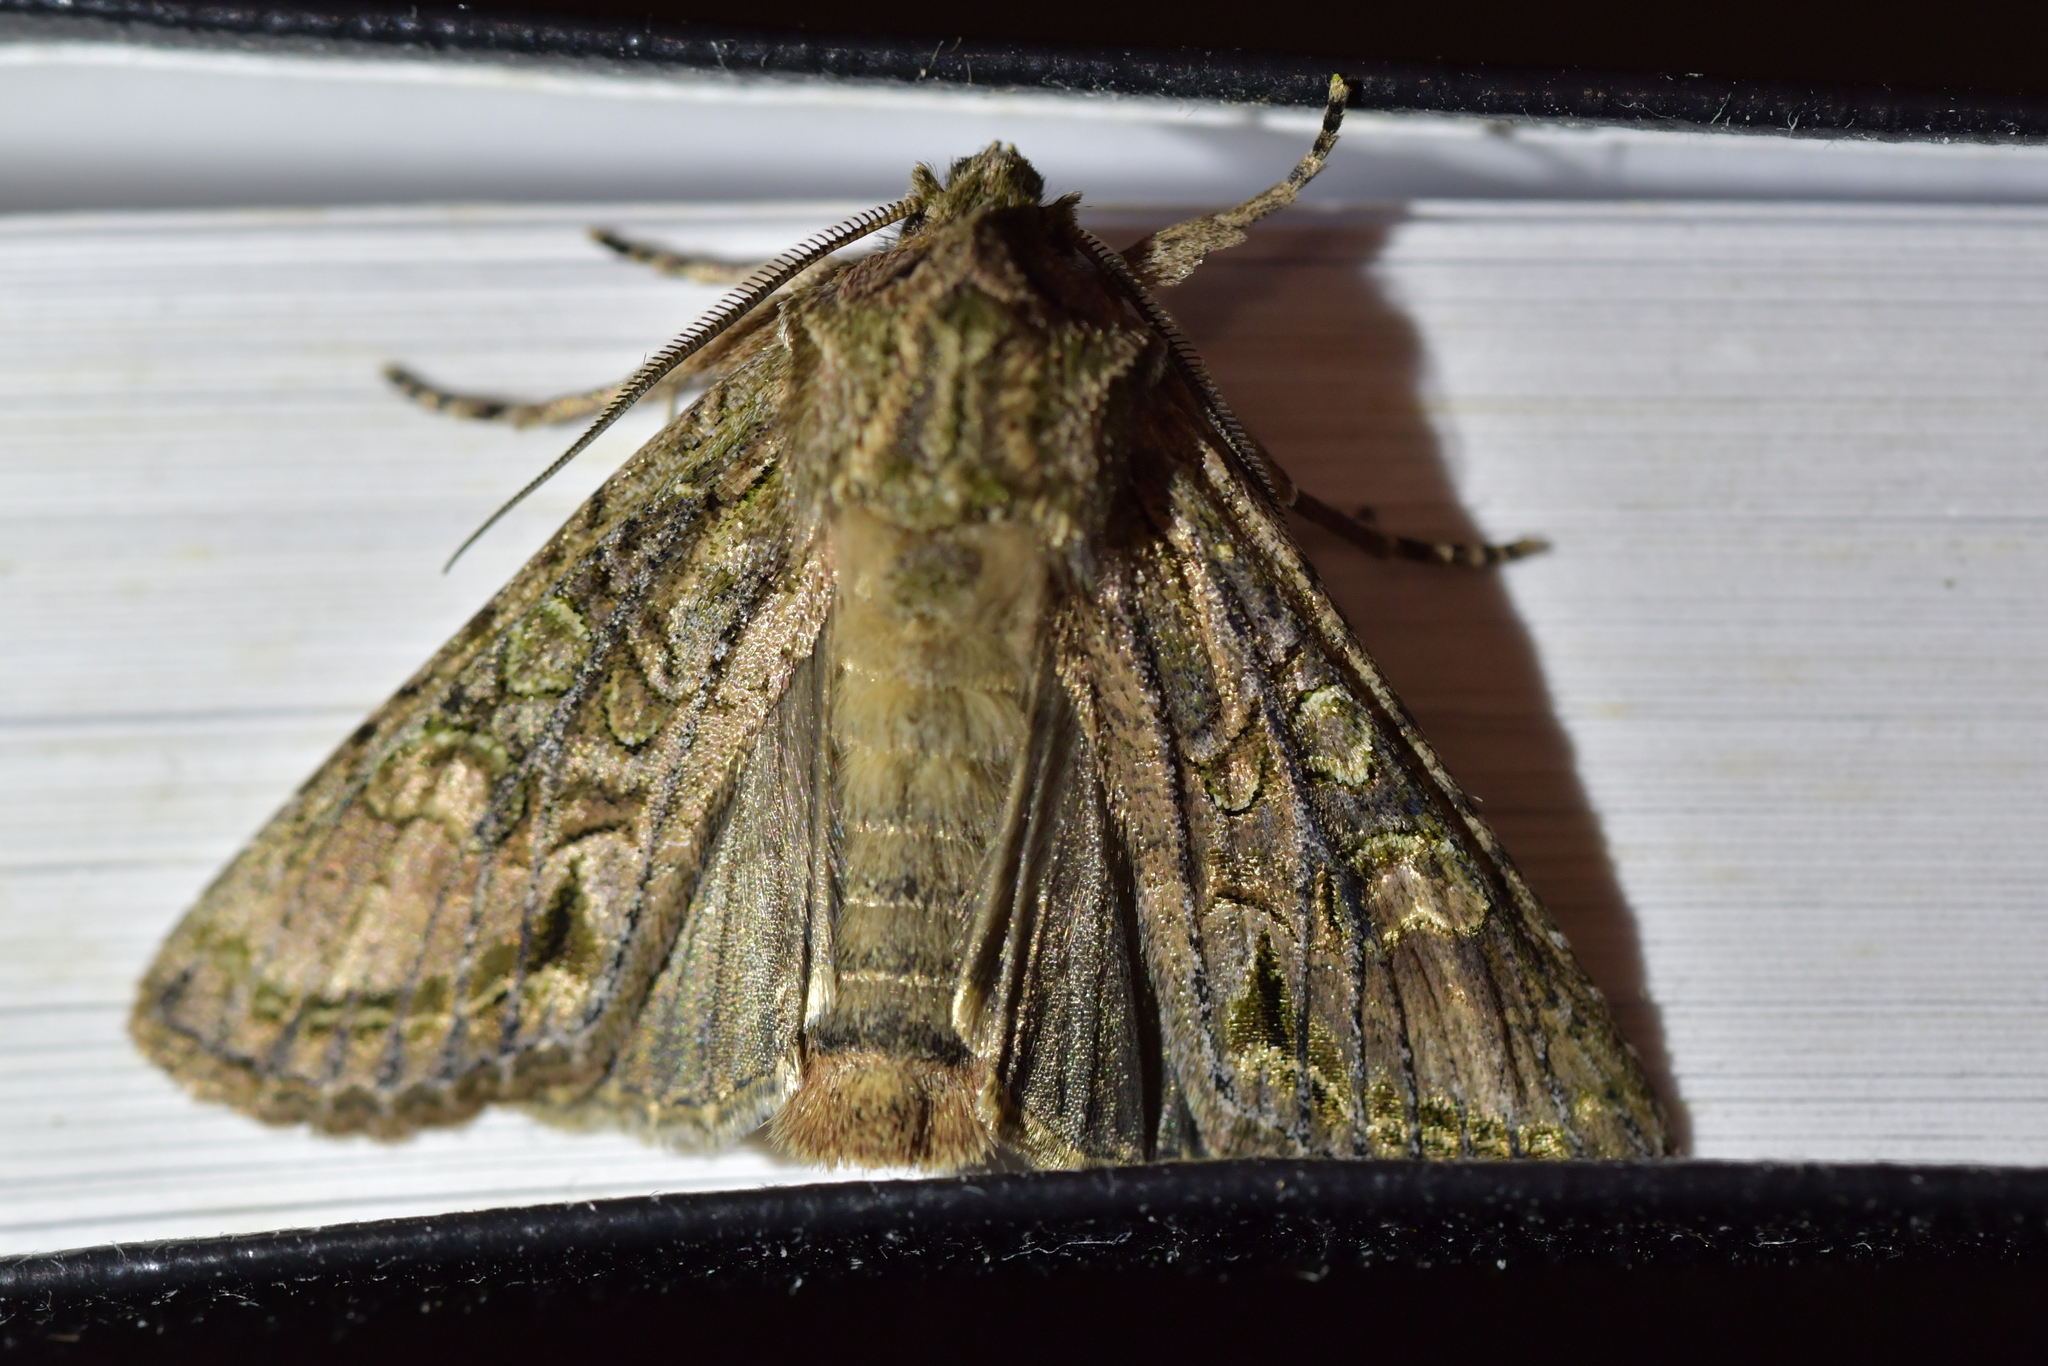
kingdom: Animalia
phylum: Arthropoda
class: Insecta
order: Lepidoptera
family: Noctuidae
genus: Ichneutica
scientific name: Ichneutica mutans
